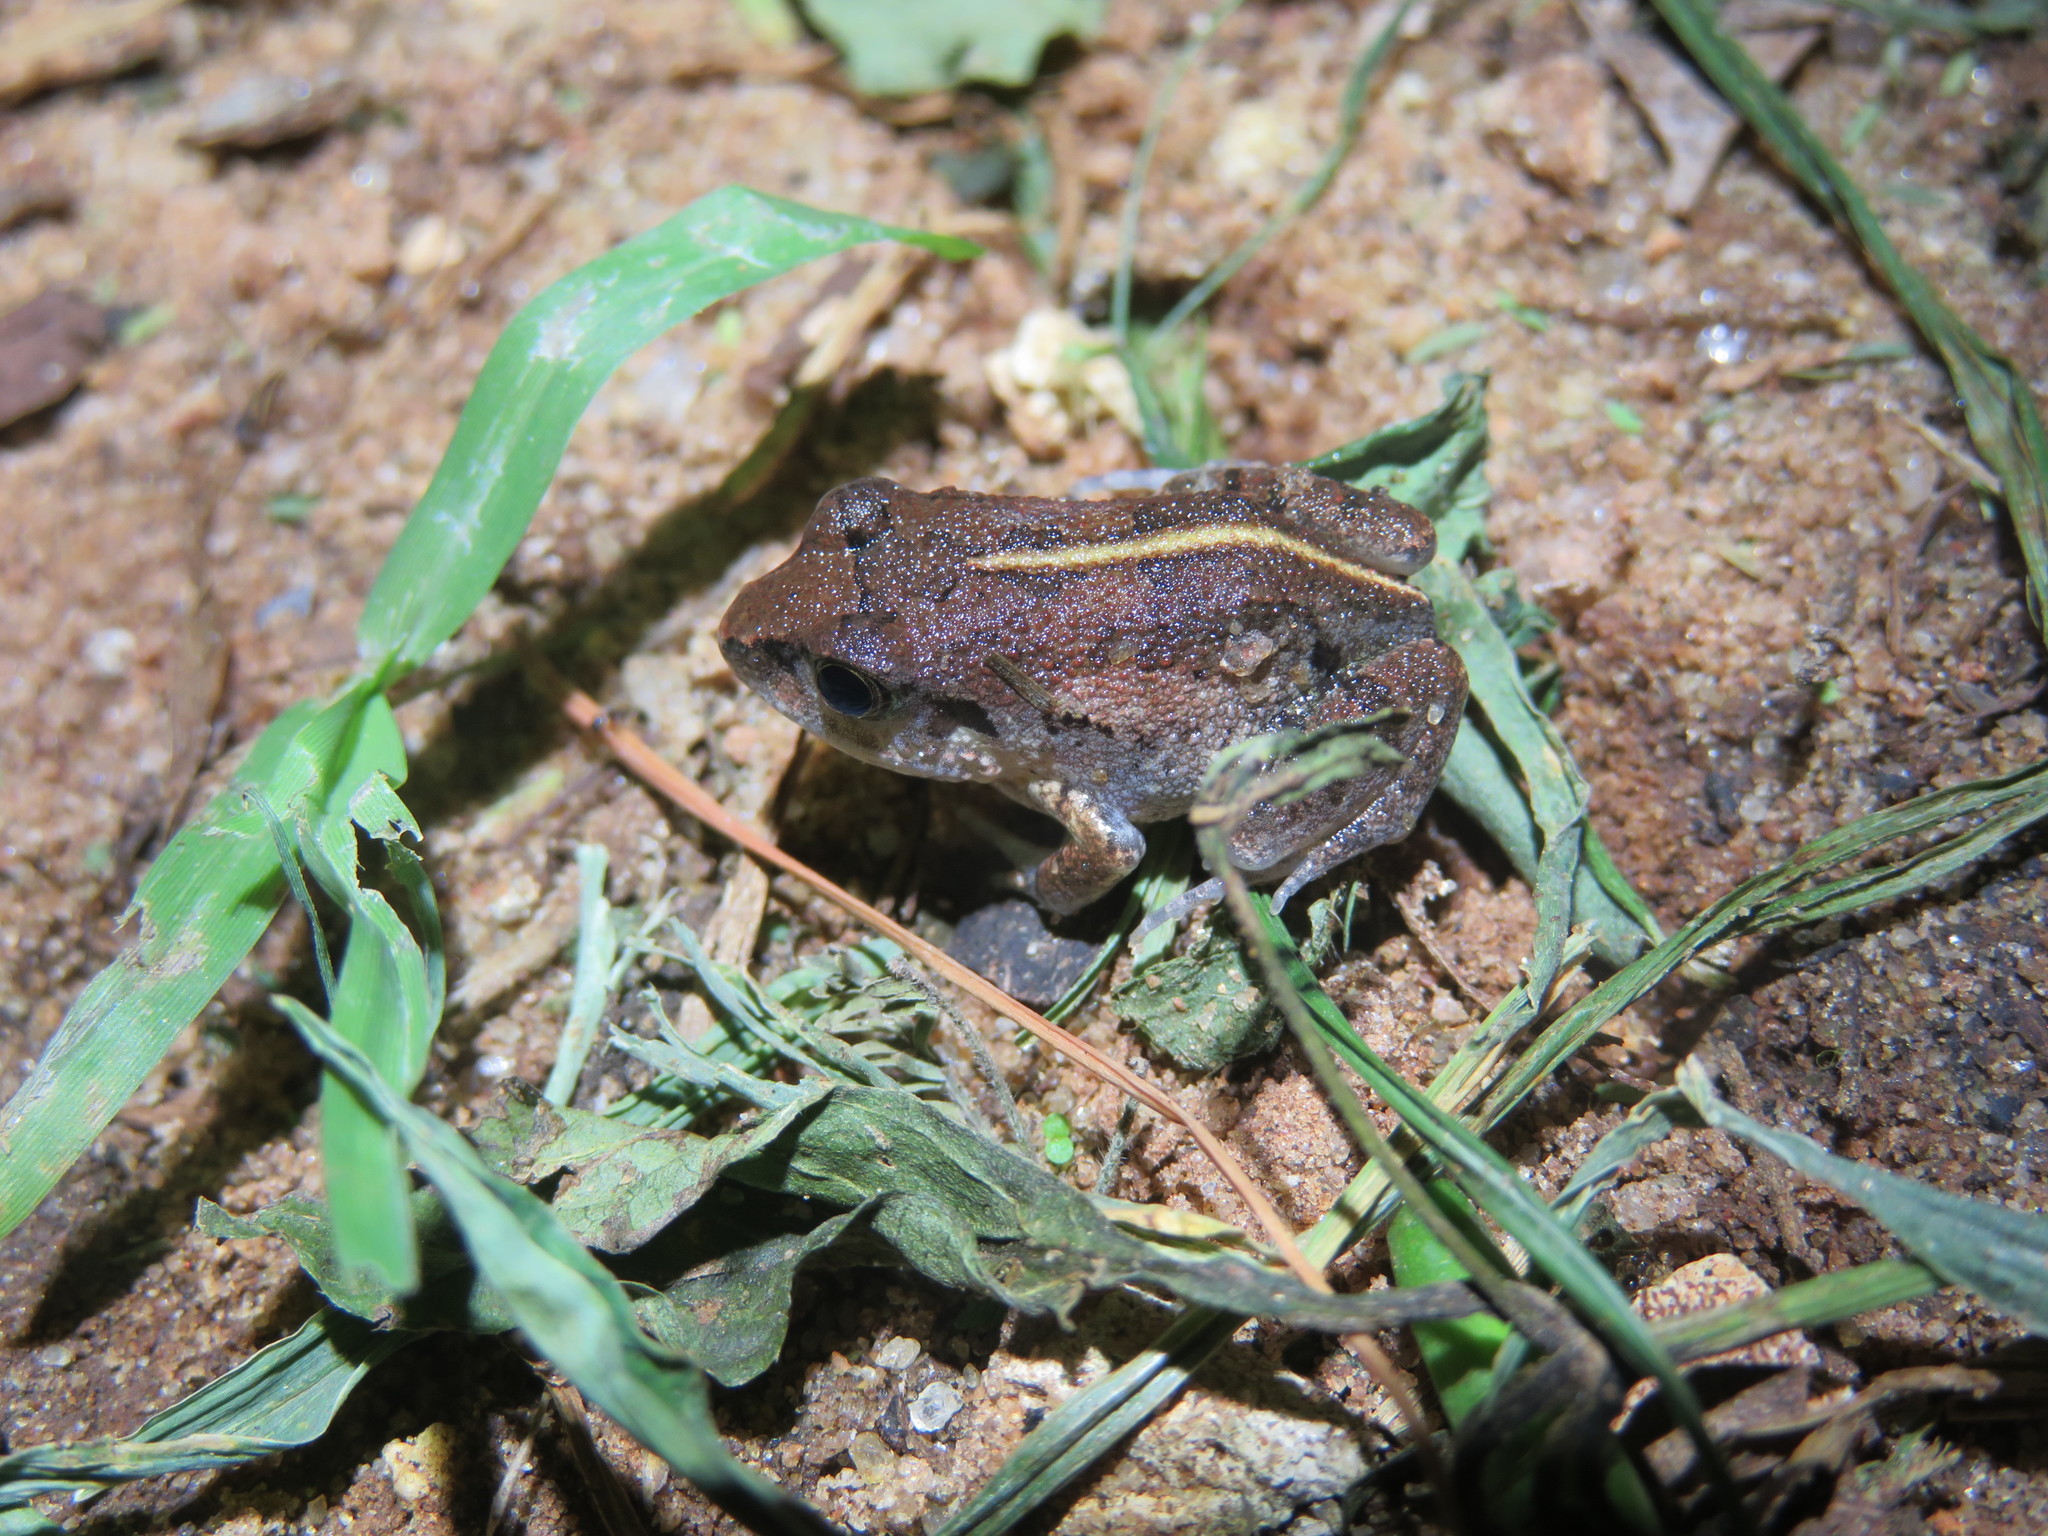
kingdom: Animalia
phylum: Chordata
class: Amphibia
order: Anura
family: Arthroleptidae
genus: Arthroleptis
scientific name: Arthroleptis stenodactylus
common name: Dune squeaker
